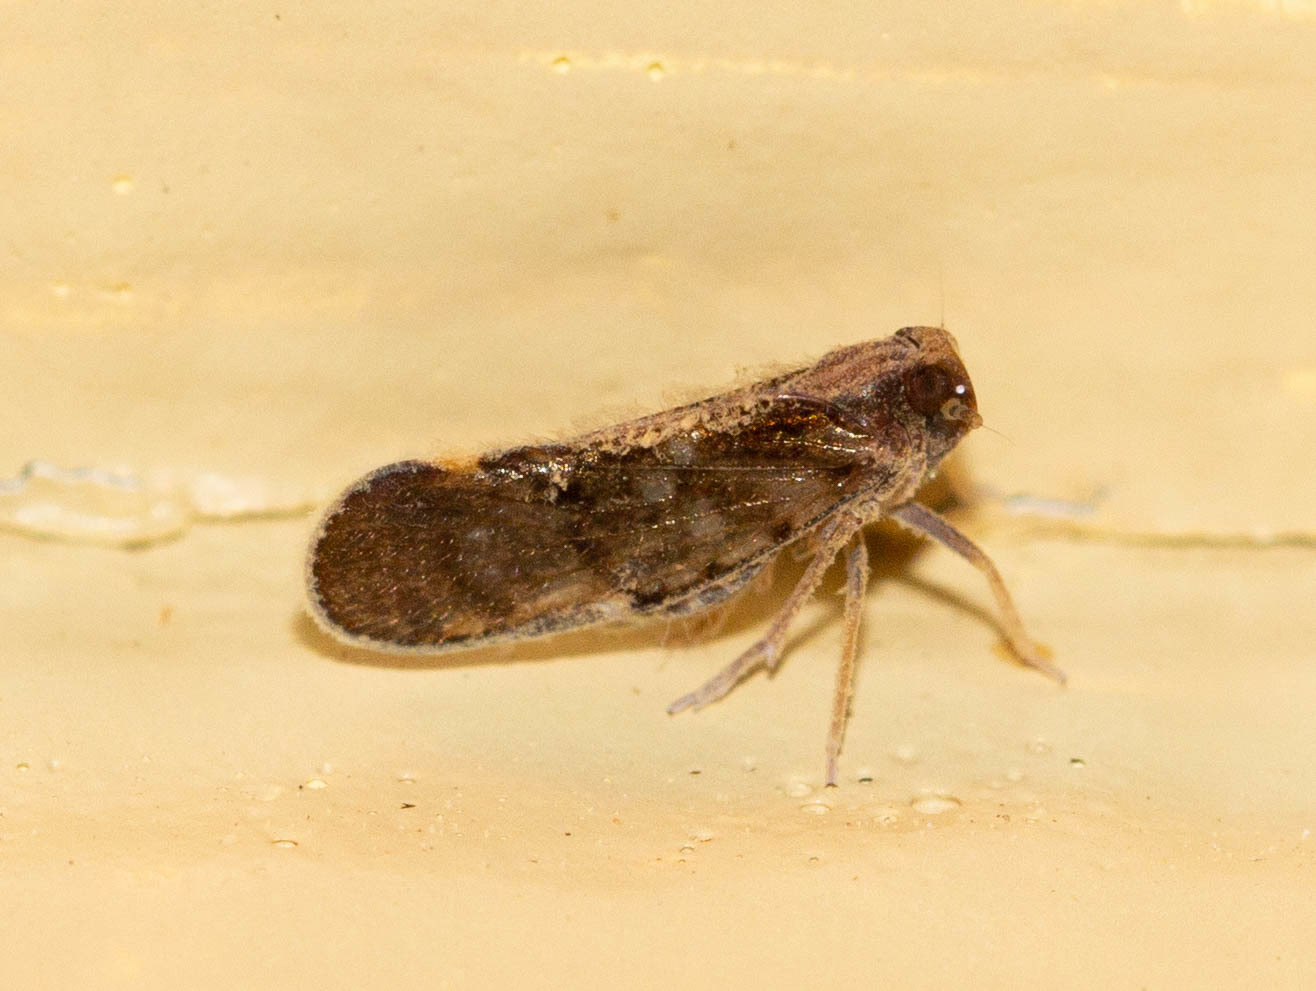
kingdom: Animalia
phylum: Arthropoda
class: Insecta
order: Hemiptera
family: Cixiidae
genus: Pintalia
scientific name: Pintalia vibex
